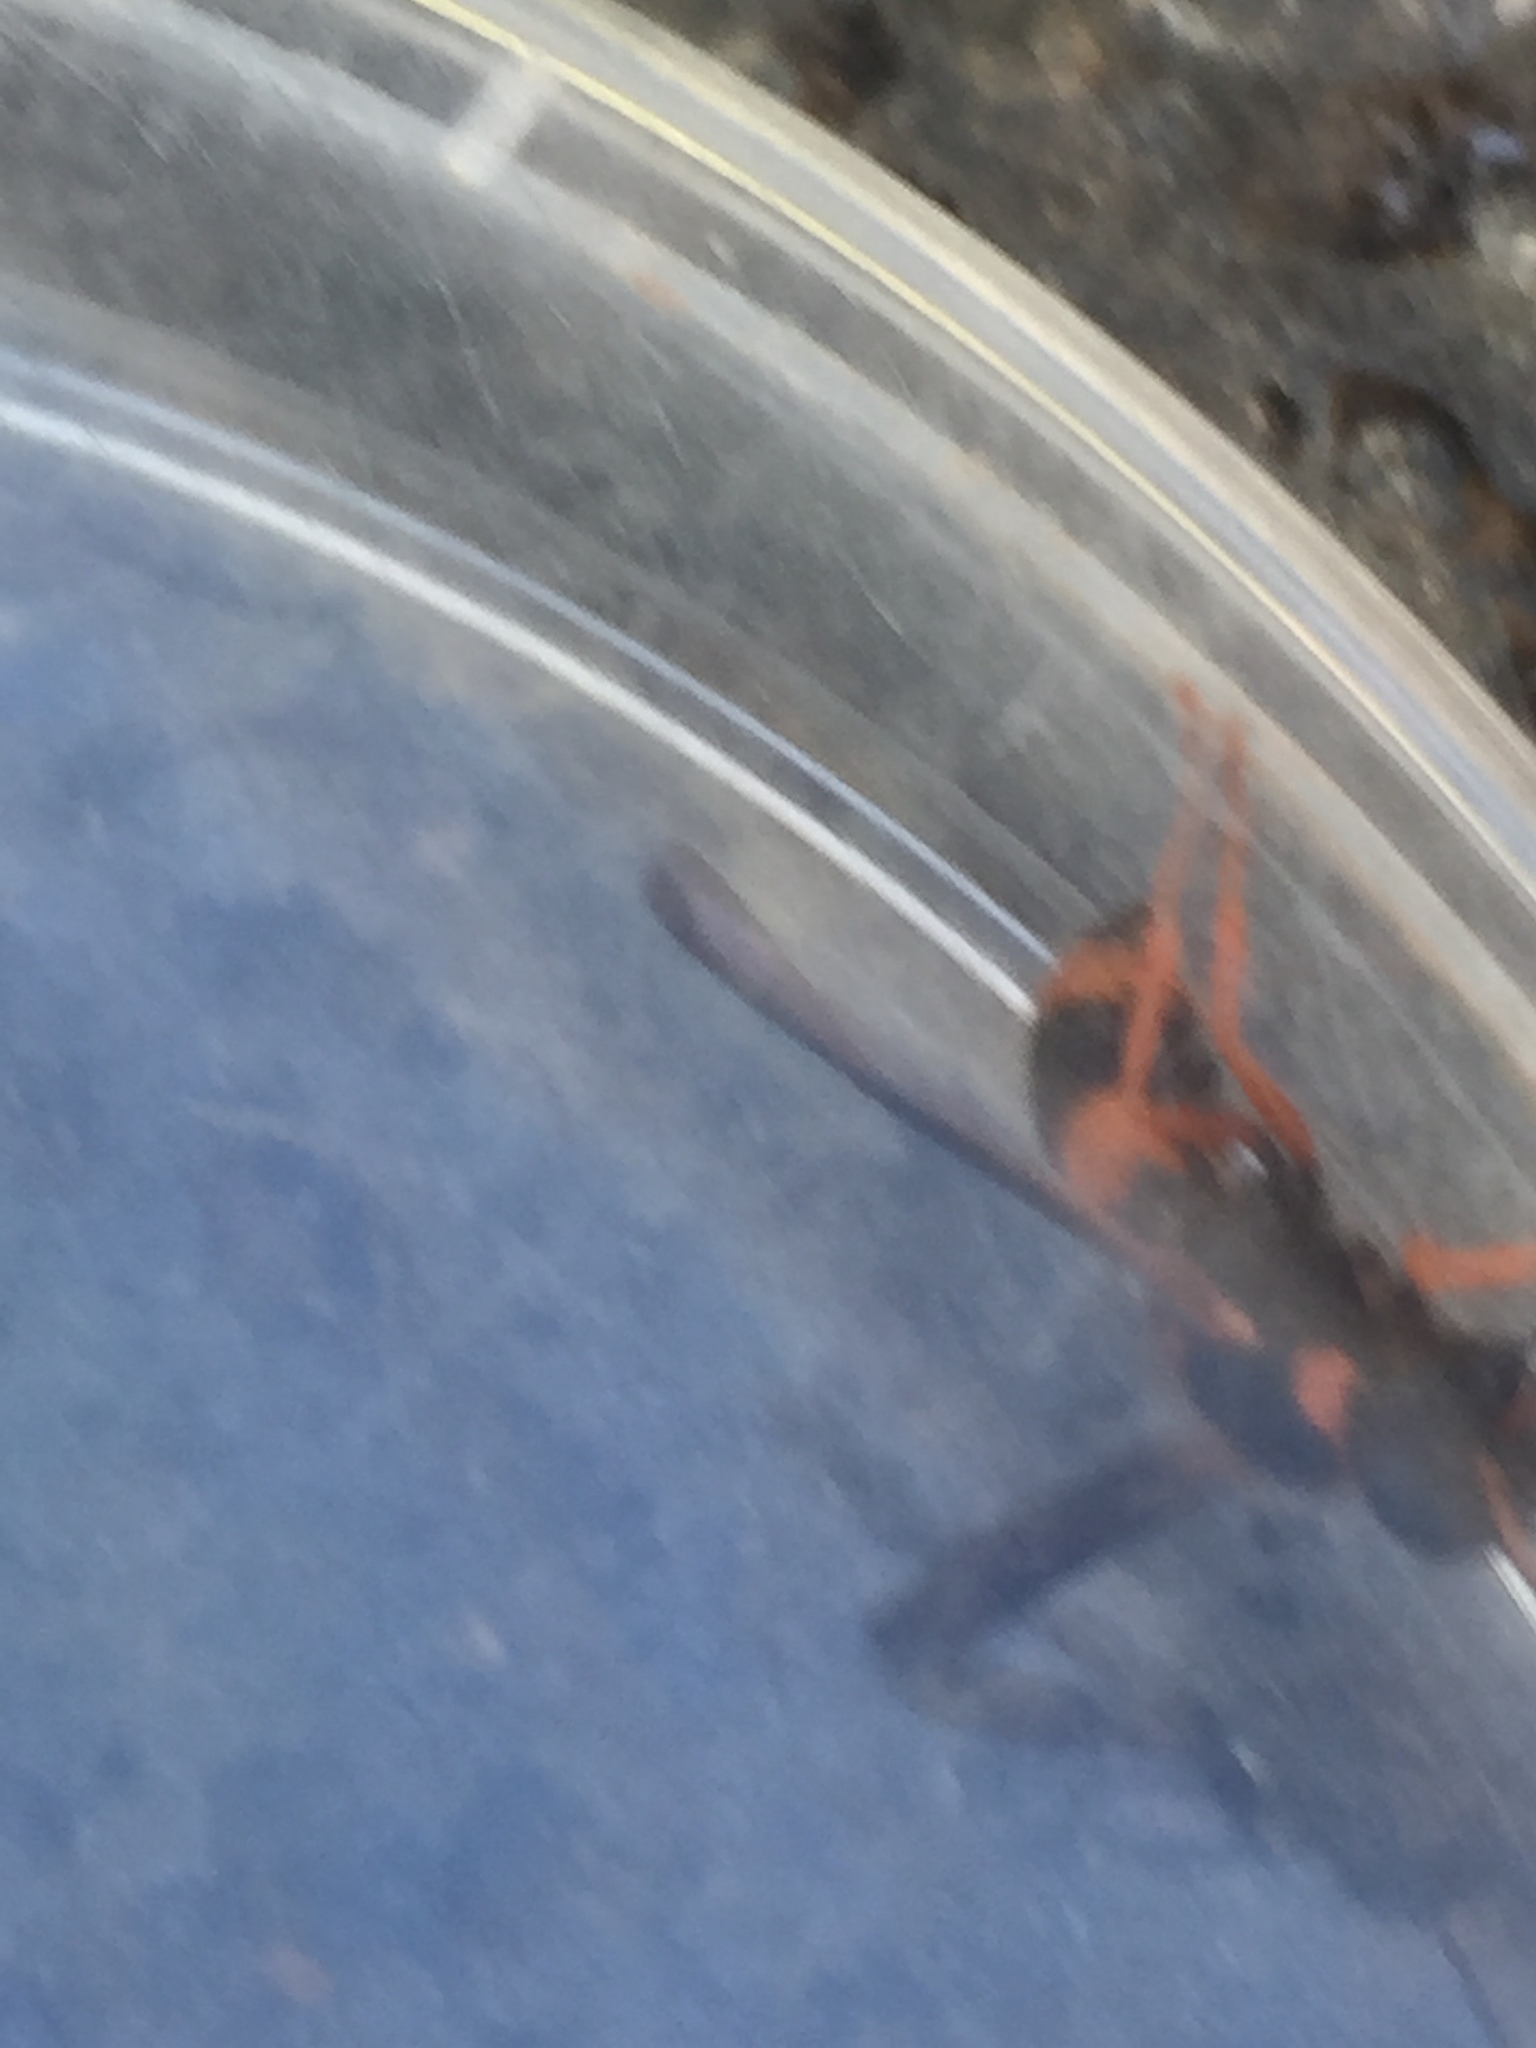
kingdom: Animalia
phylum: Arthropoda
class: Insecta
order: Hymenoptera
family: Vespidae
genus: Ancistrocerus
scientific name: Ancistrocerus kerneri
